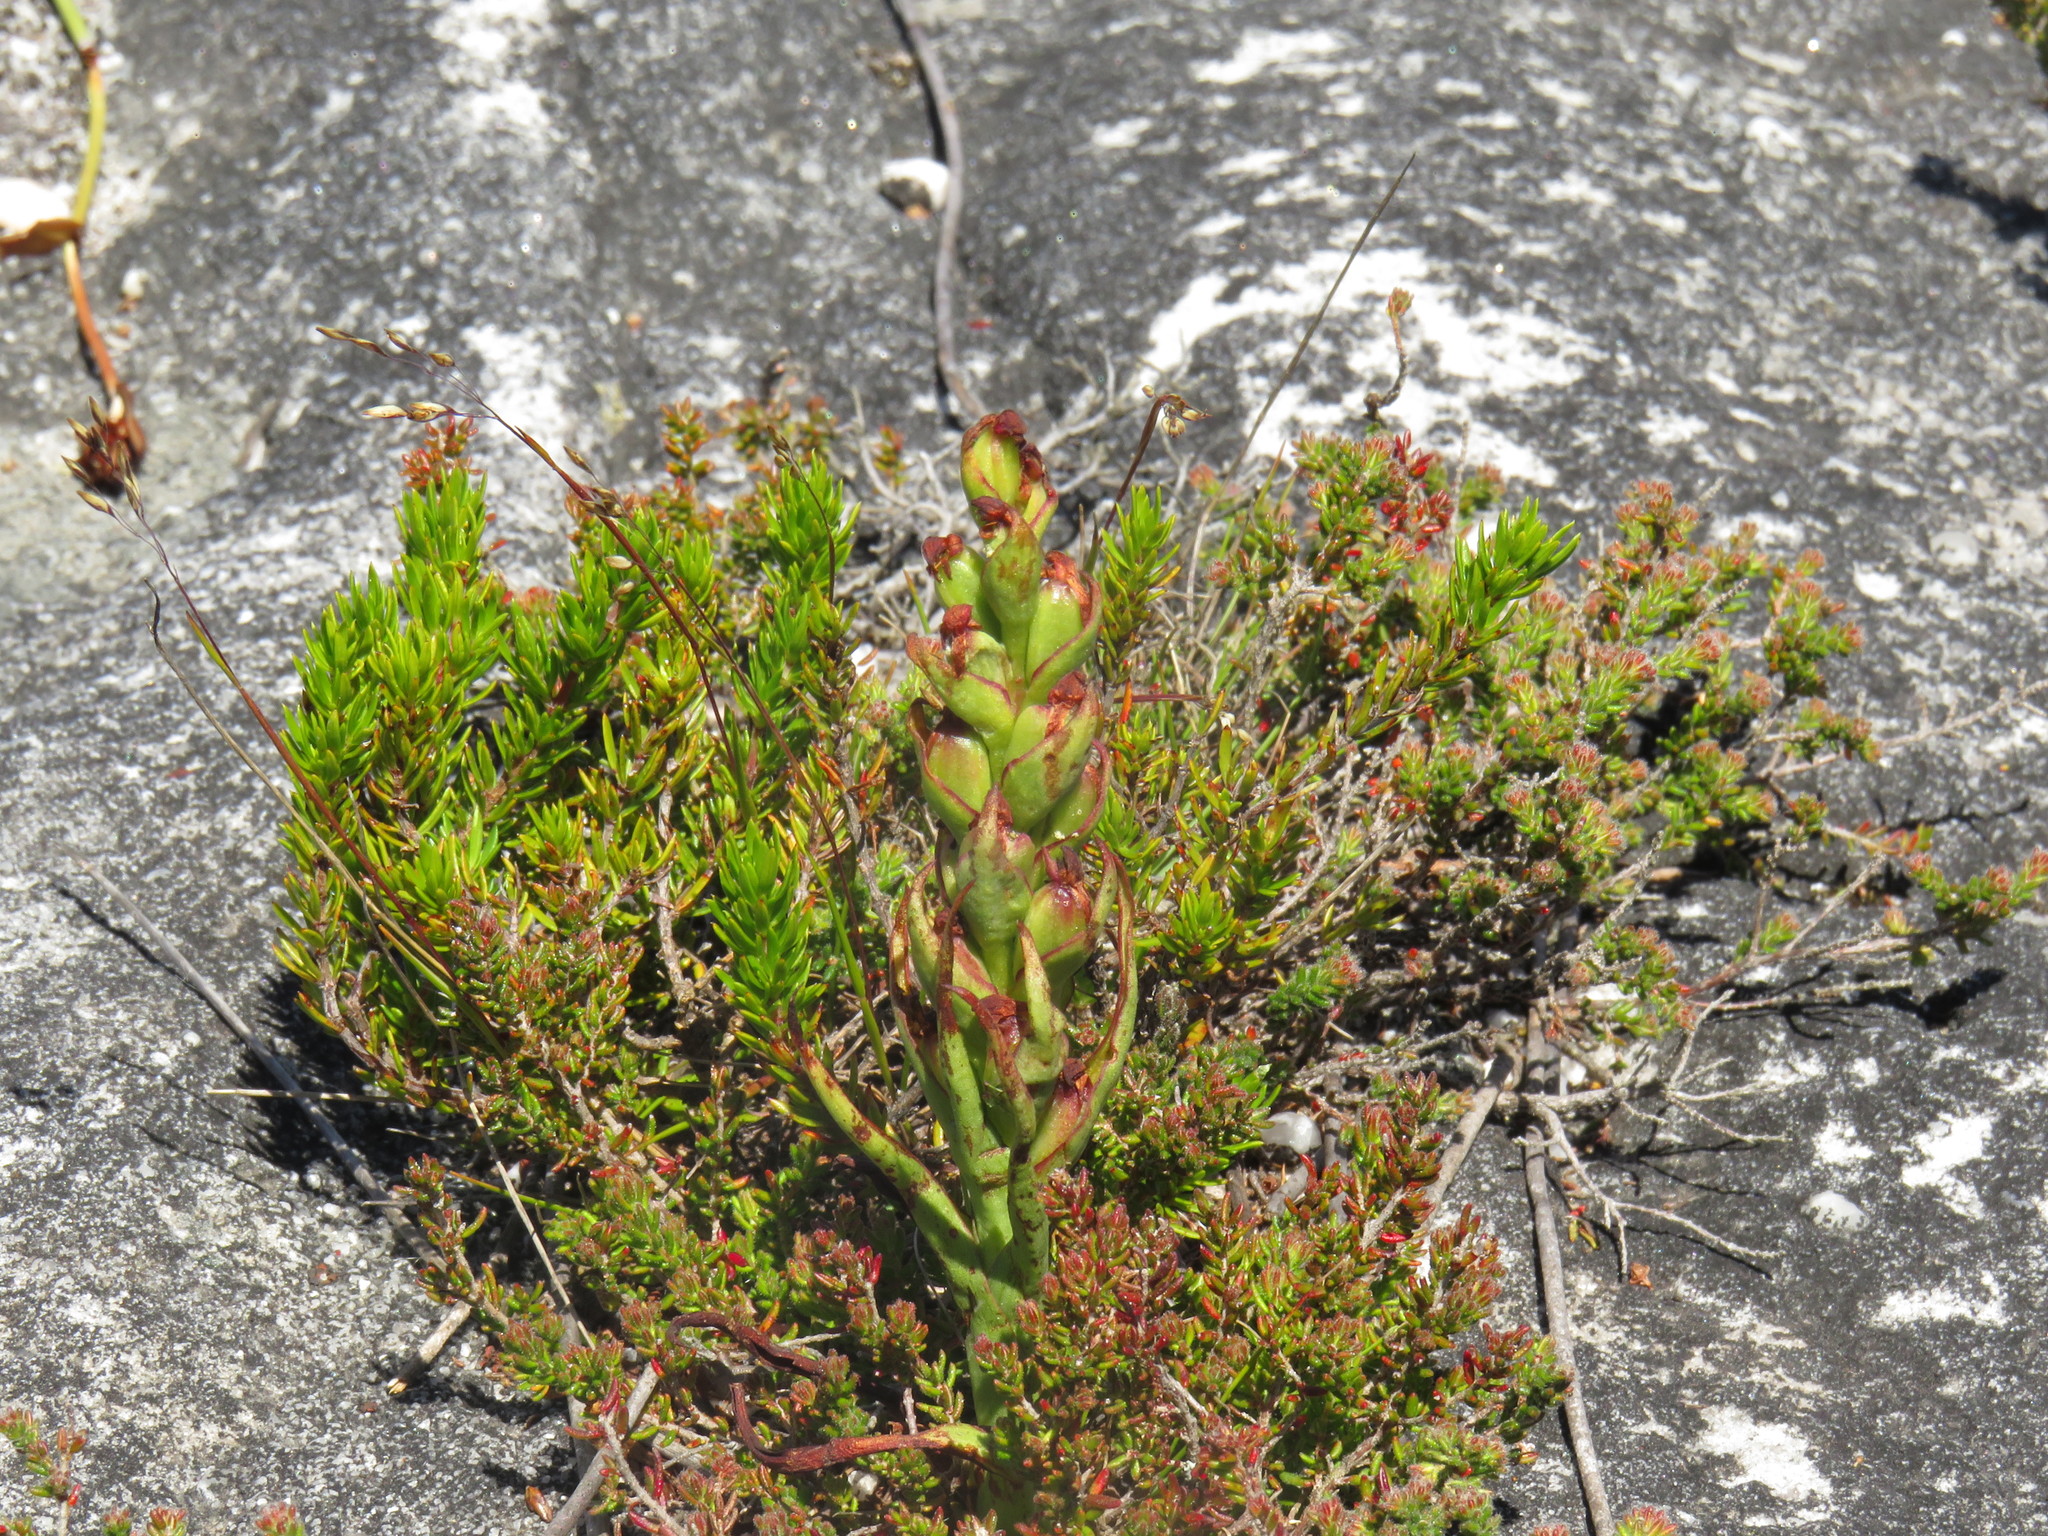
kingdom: Plantae
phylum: Tracheophyta
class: Liliopsida
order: Asparagales
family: Orchidaceae
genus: Disa
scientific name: Disa bracteata
